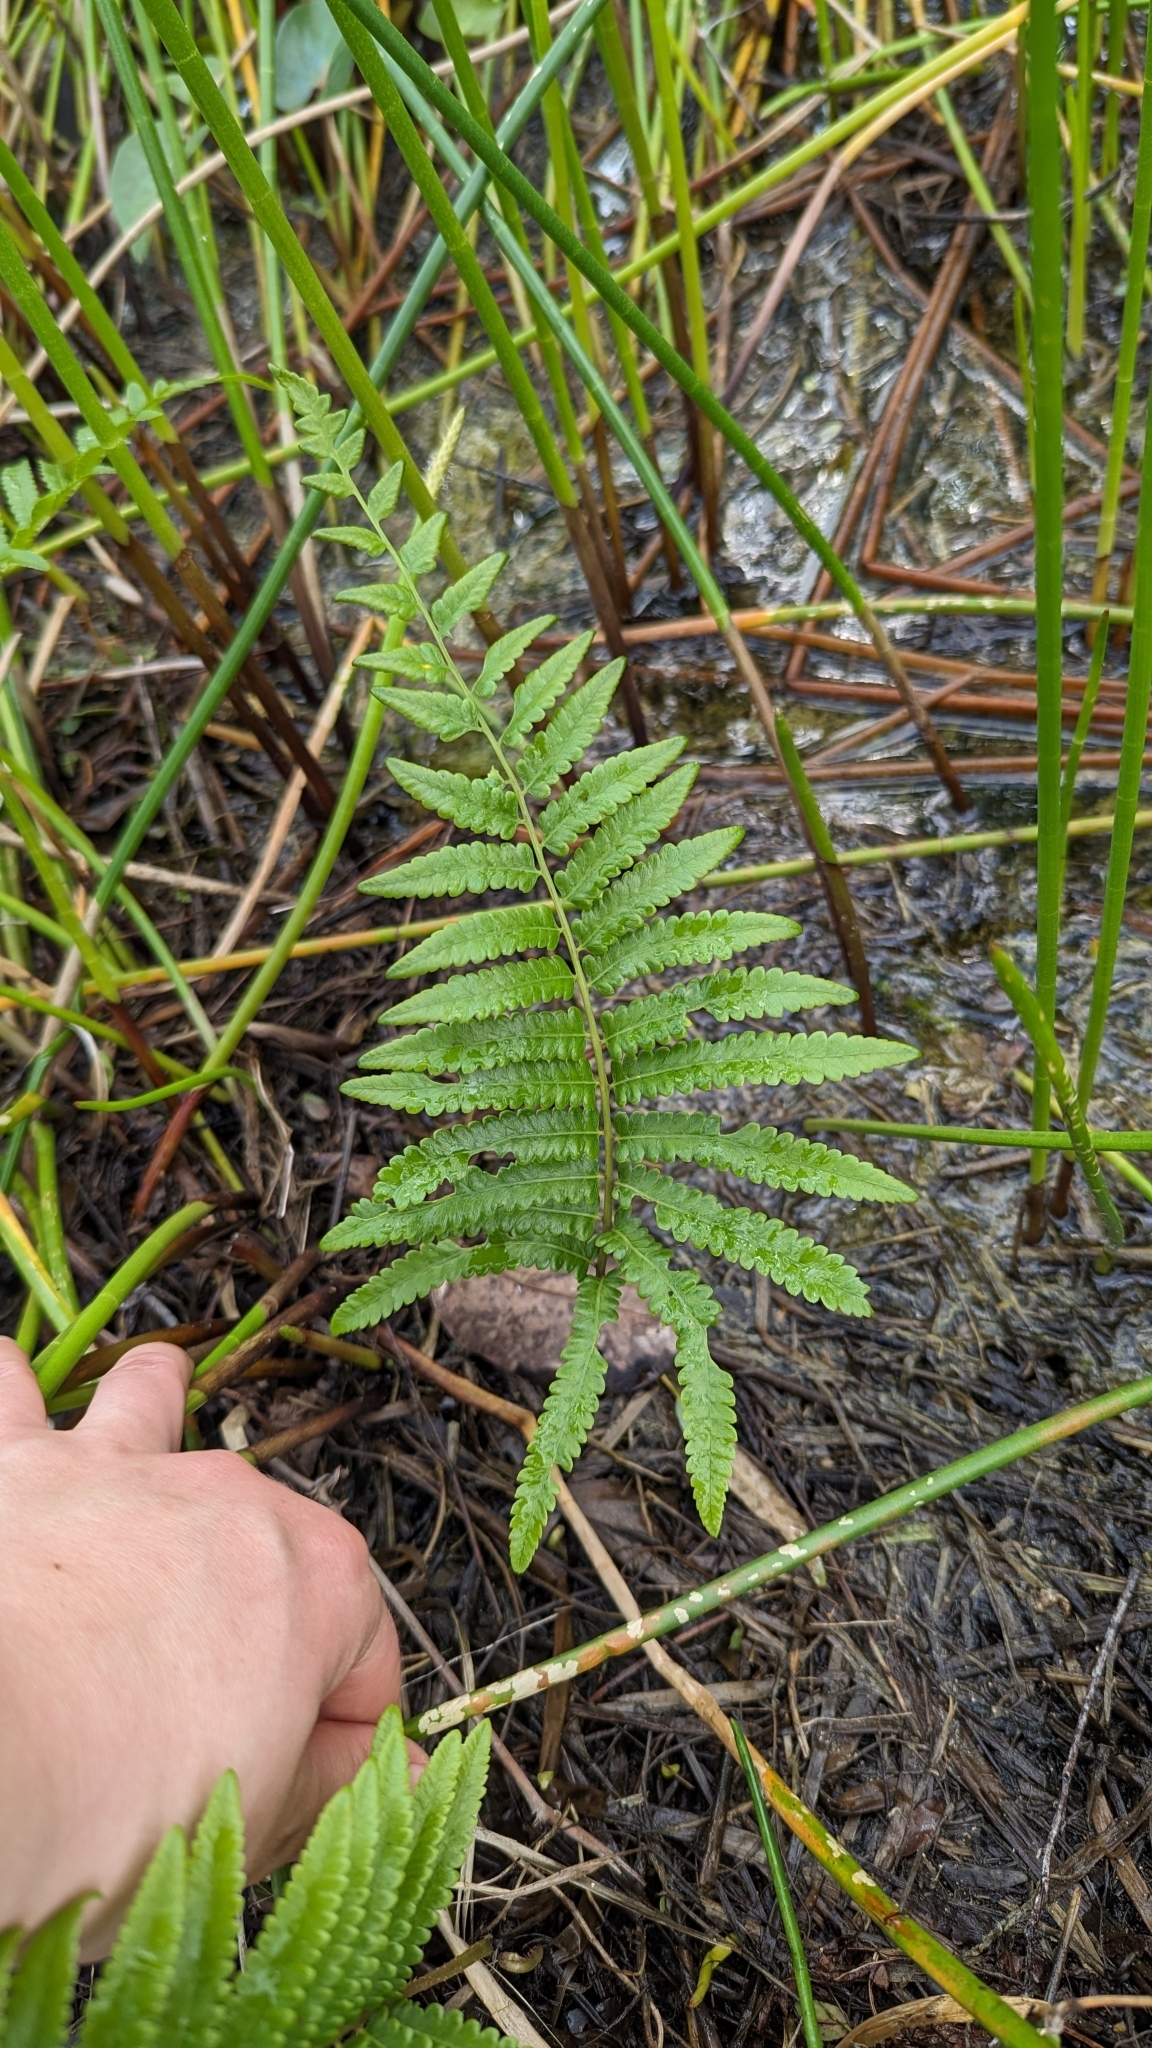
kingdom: Plantae
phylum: Tracheophyta
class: Polypodiopsida
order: Polypodiales
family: Thelypteridaceae
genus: Cyclosorus
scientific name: Cyclosorus interruptus
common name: Neke fern
